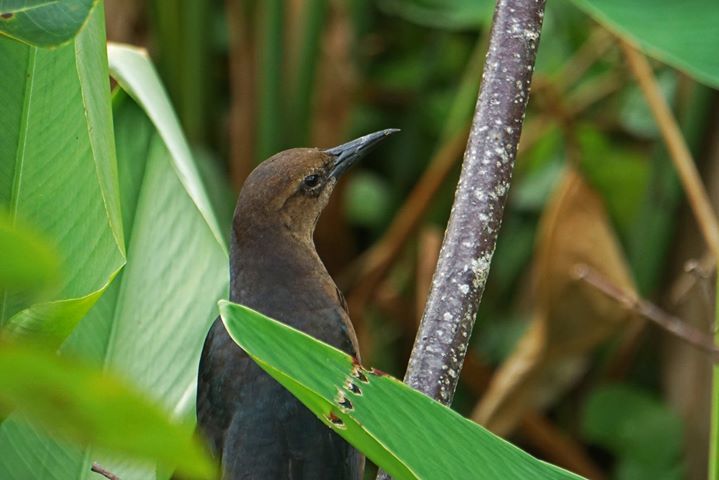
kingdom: Animalia
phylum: Chordata
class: Aves
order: Passeriformes
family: Icteridae
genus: Quiscalus
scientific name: Quiscalus major
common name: Boat-tailed grackle
